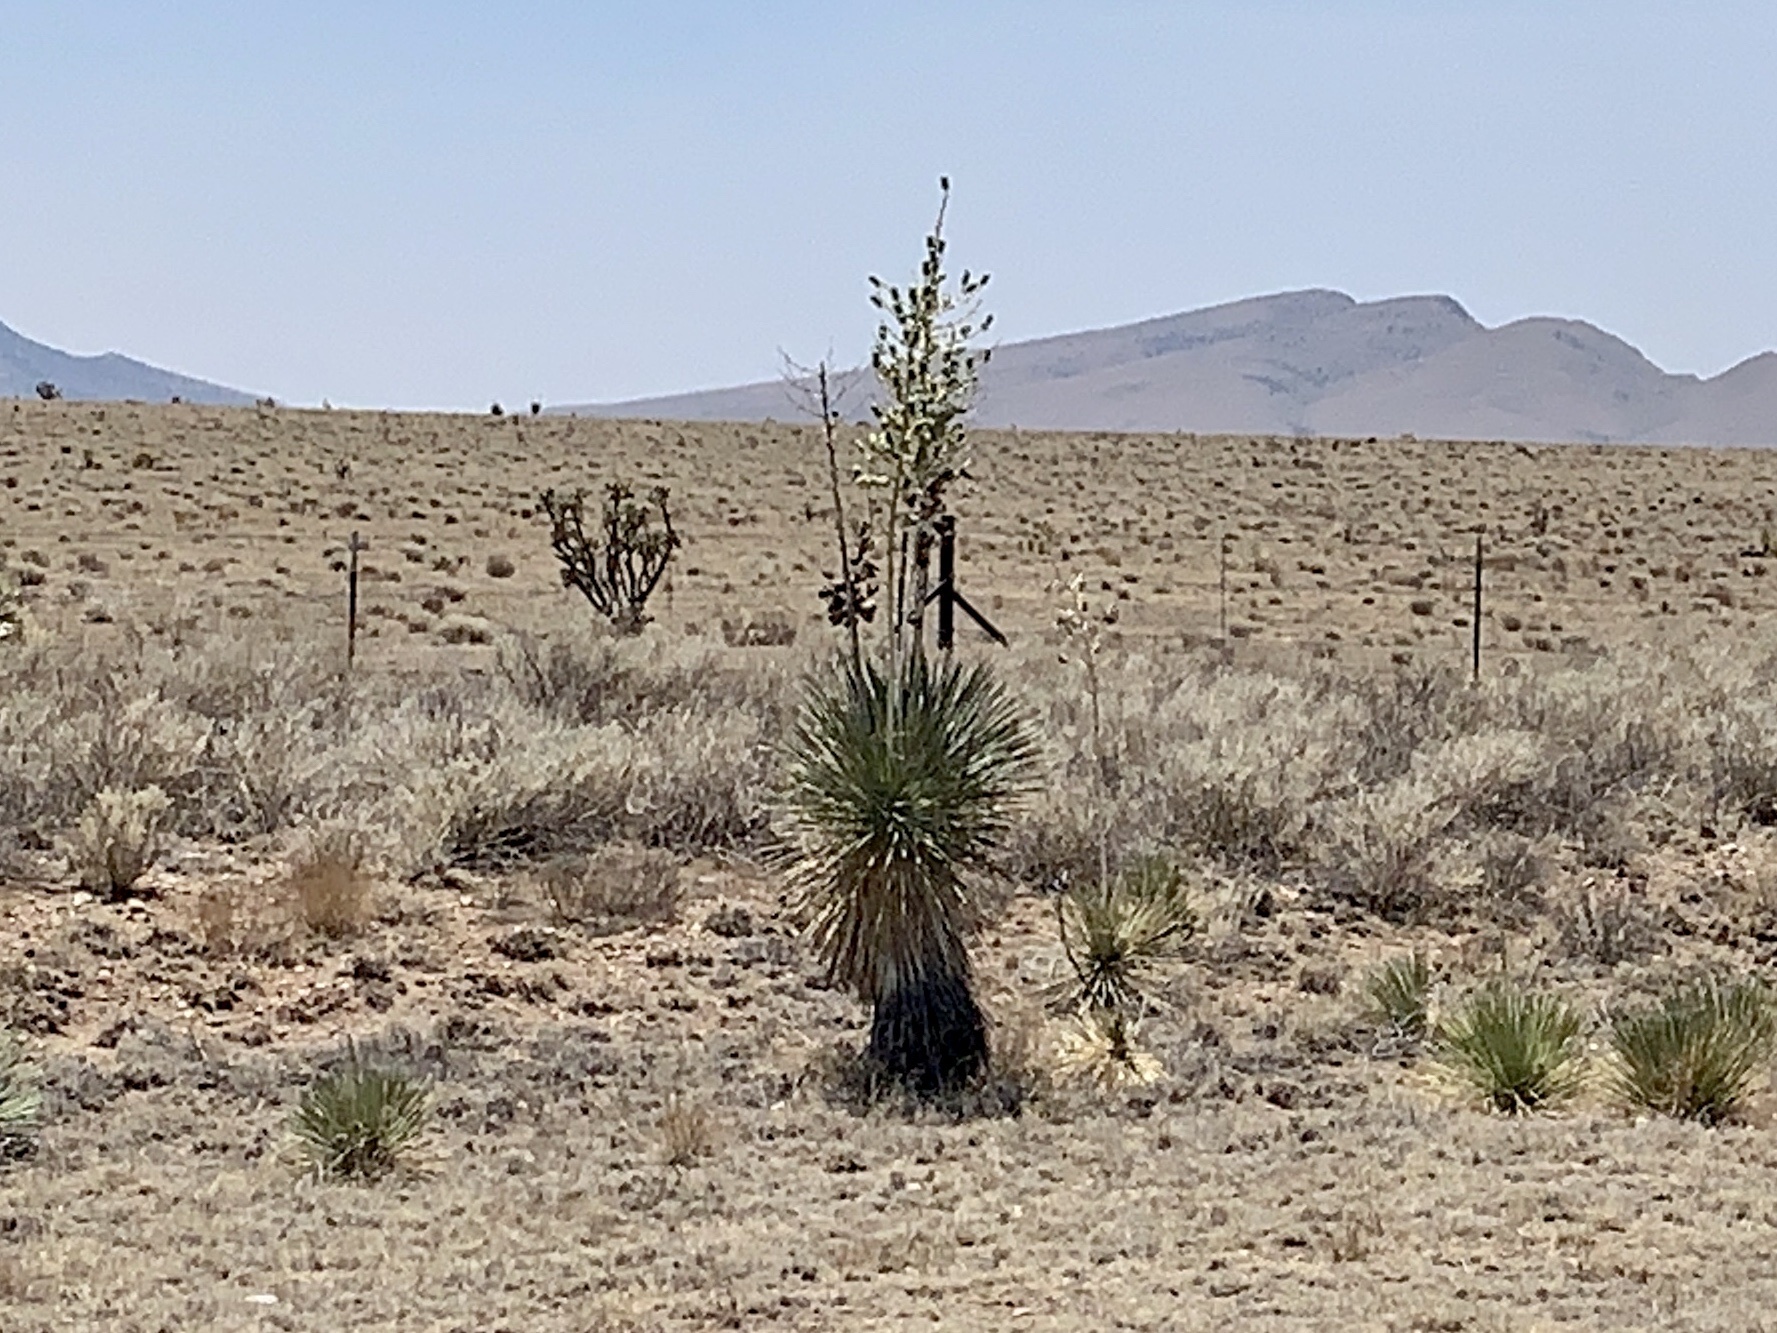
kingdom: Plantae
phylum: Tracheophyta
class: Liliopsida
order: Asparagales
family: Asparagaceae
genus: Yucca
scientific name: Yucca elata
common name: Palmella
